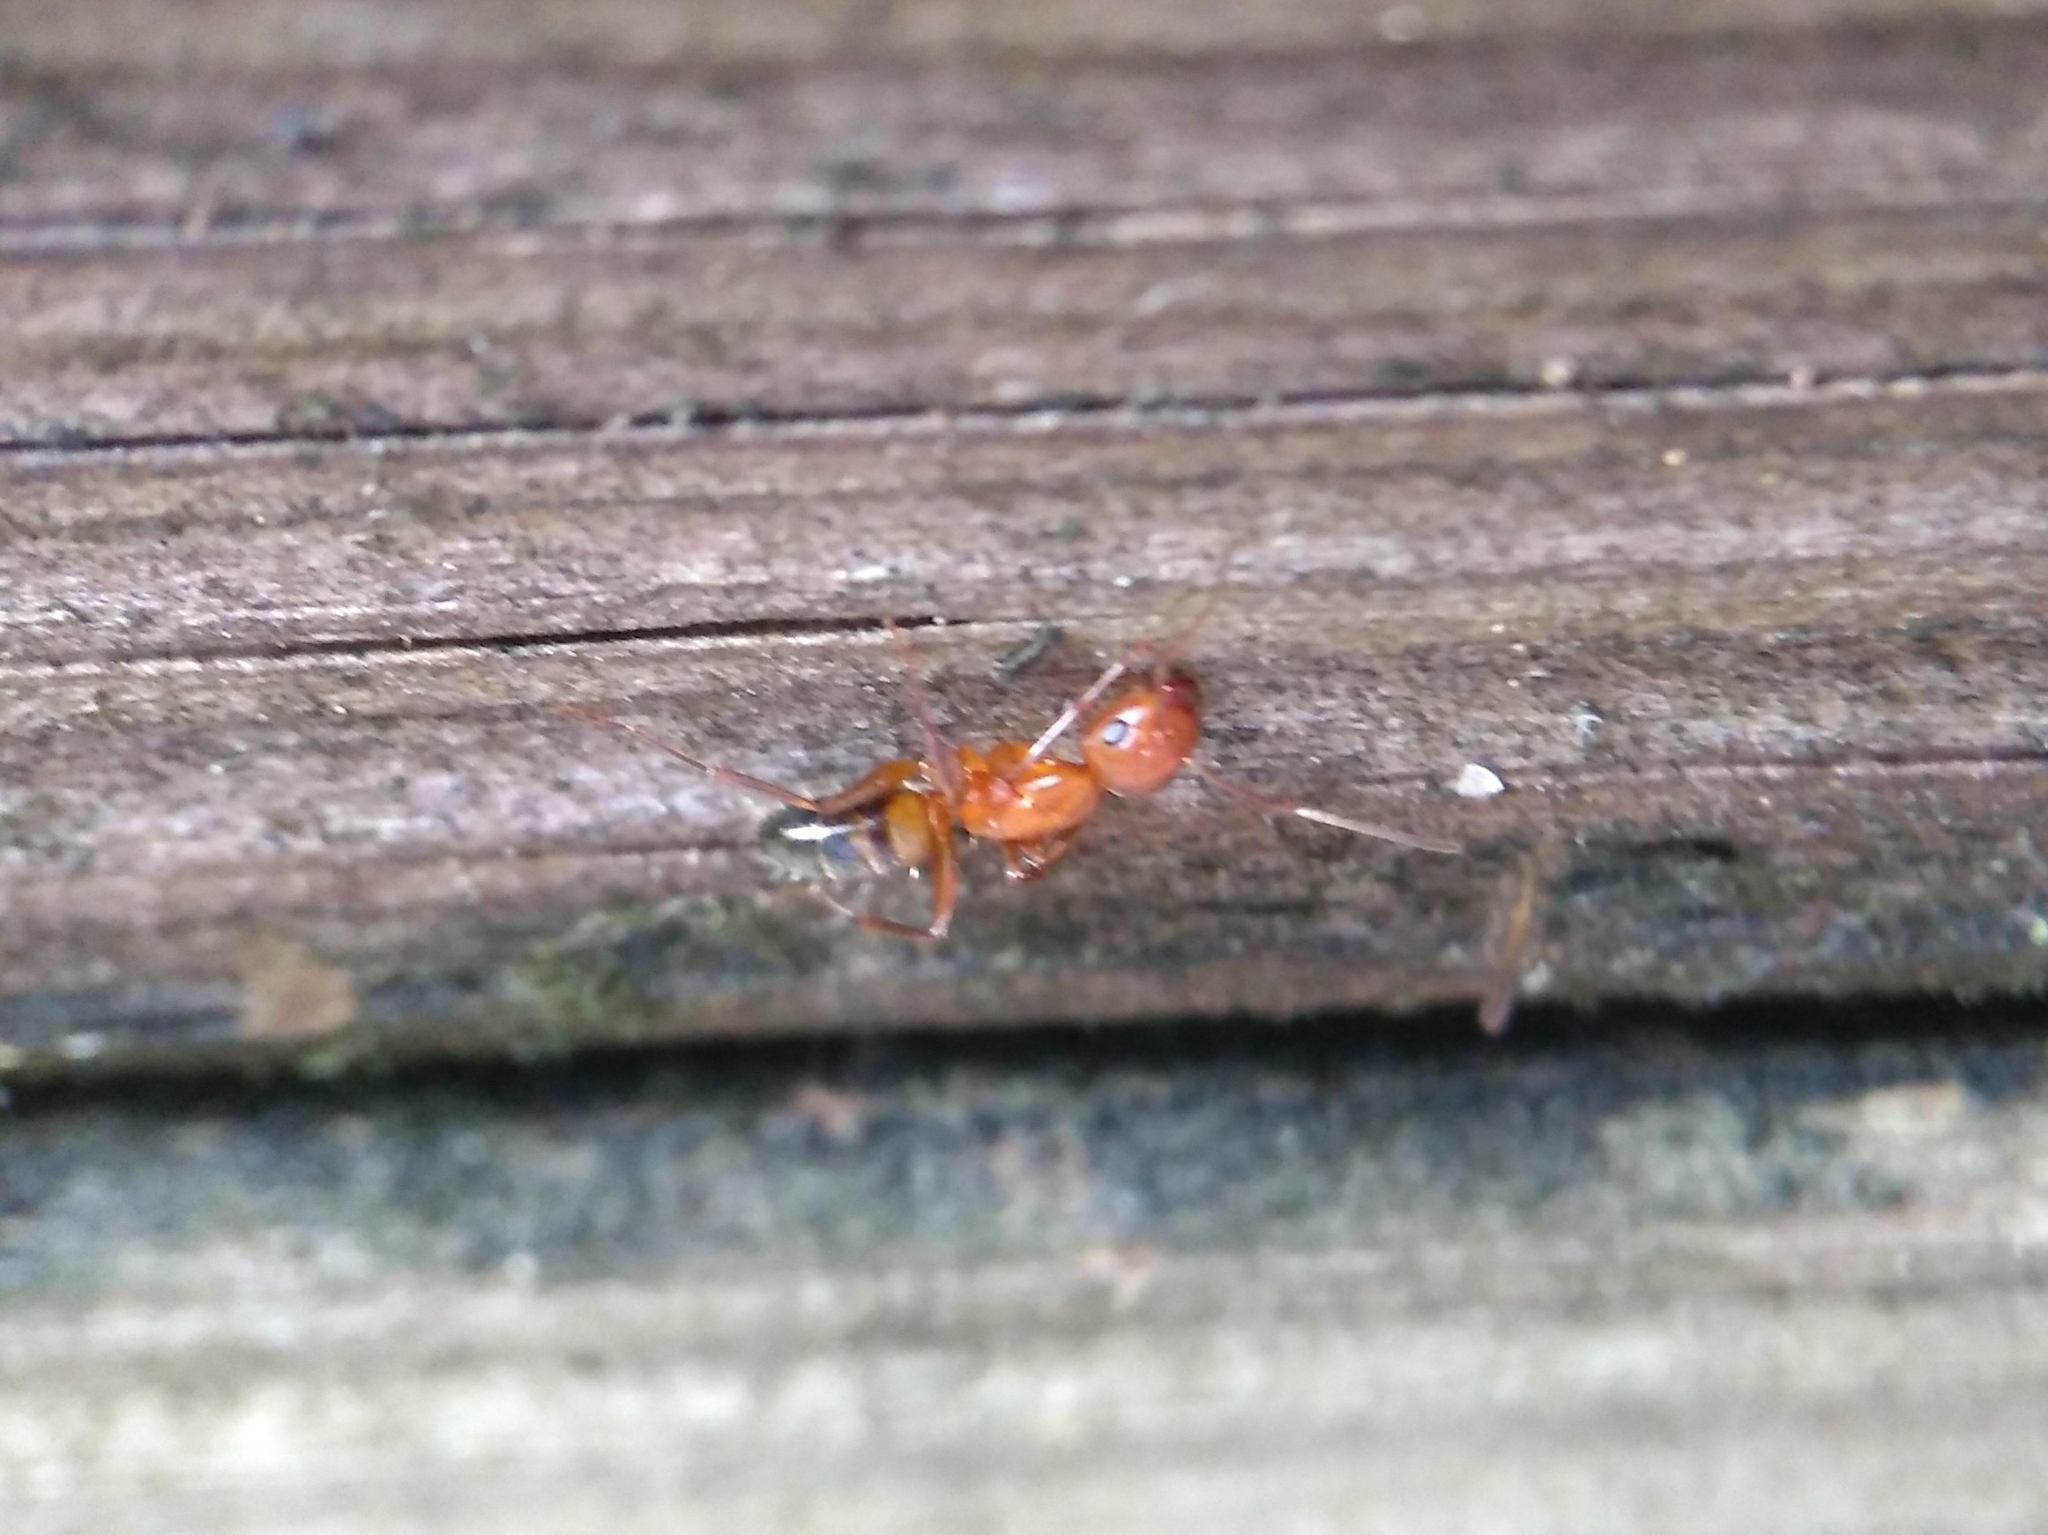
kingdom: Animalia
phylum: Arthropoda
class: Insecta
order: Hymenoptera
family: Formicidae
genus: Camponotus
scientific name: Camponotus snellingi
